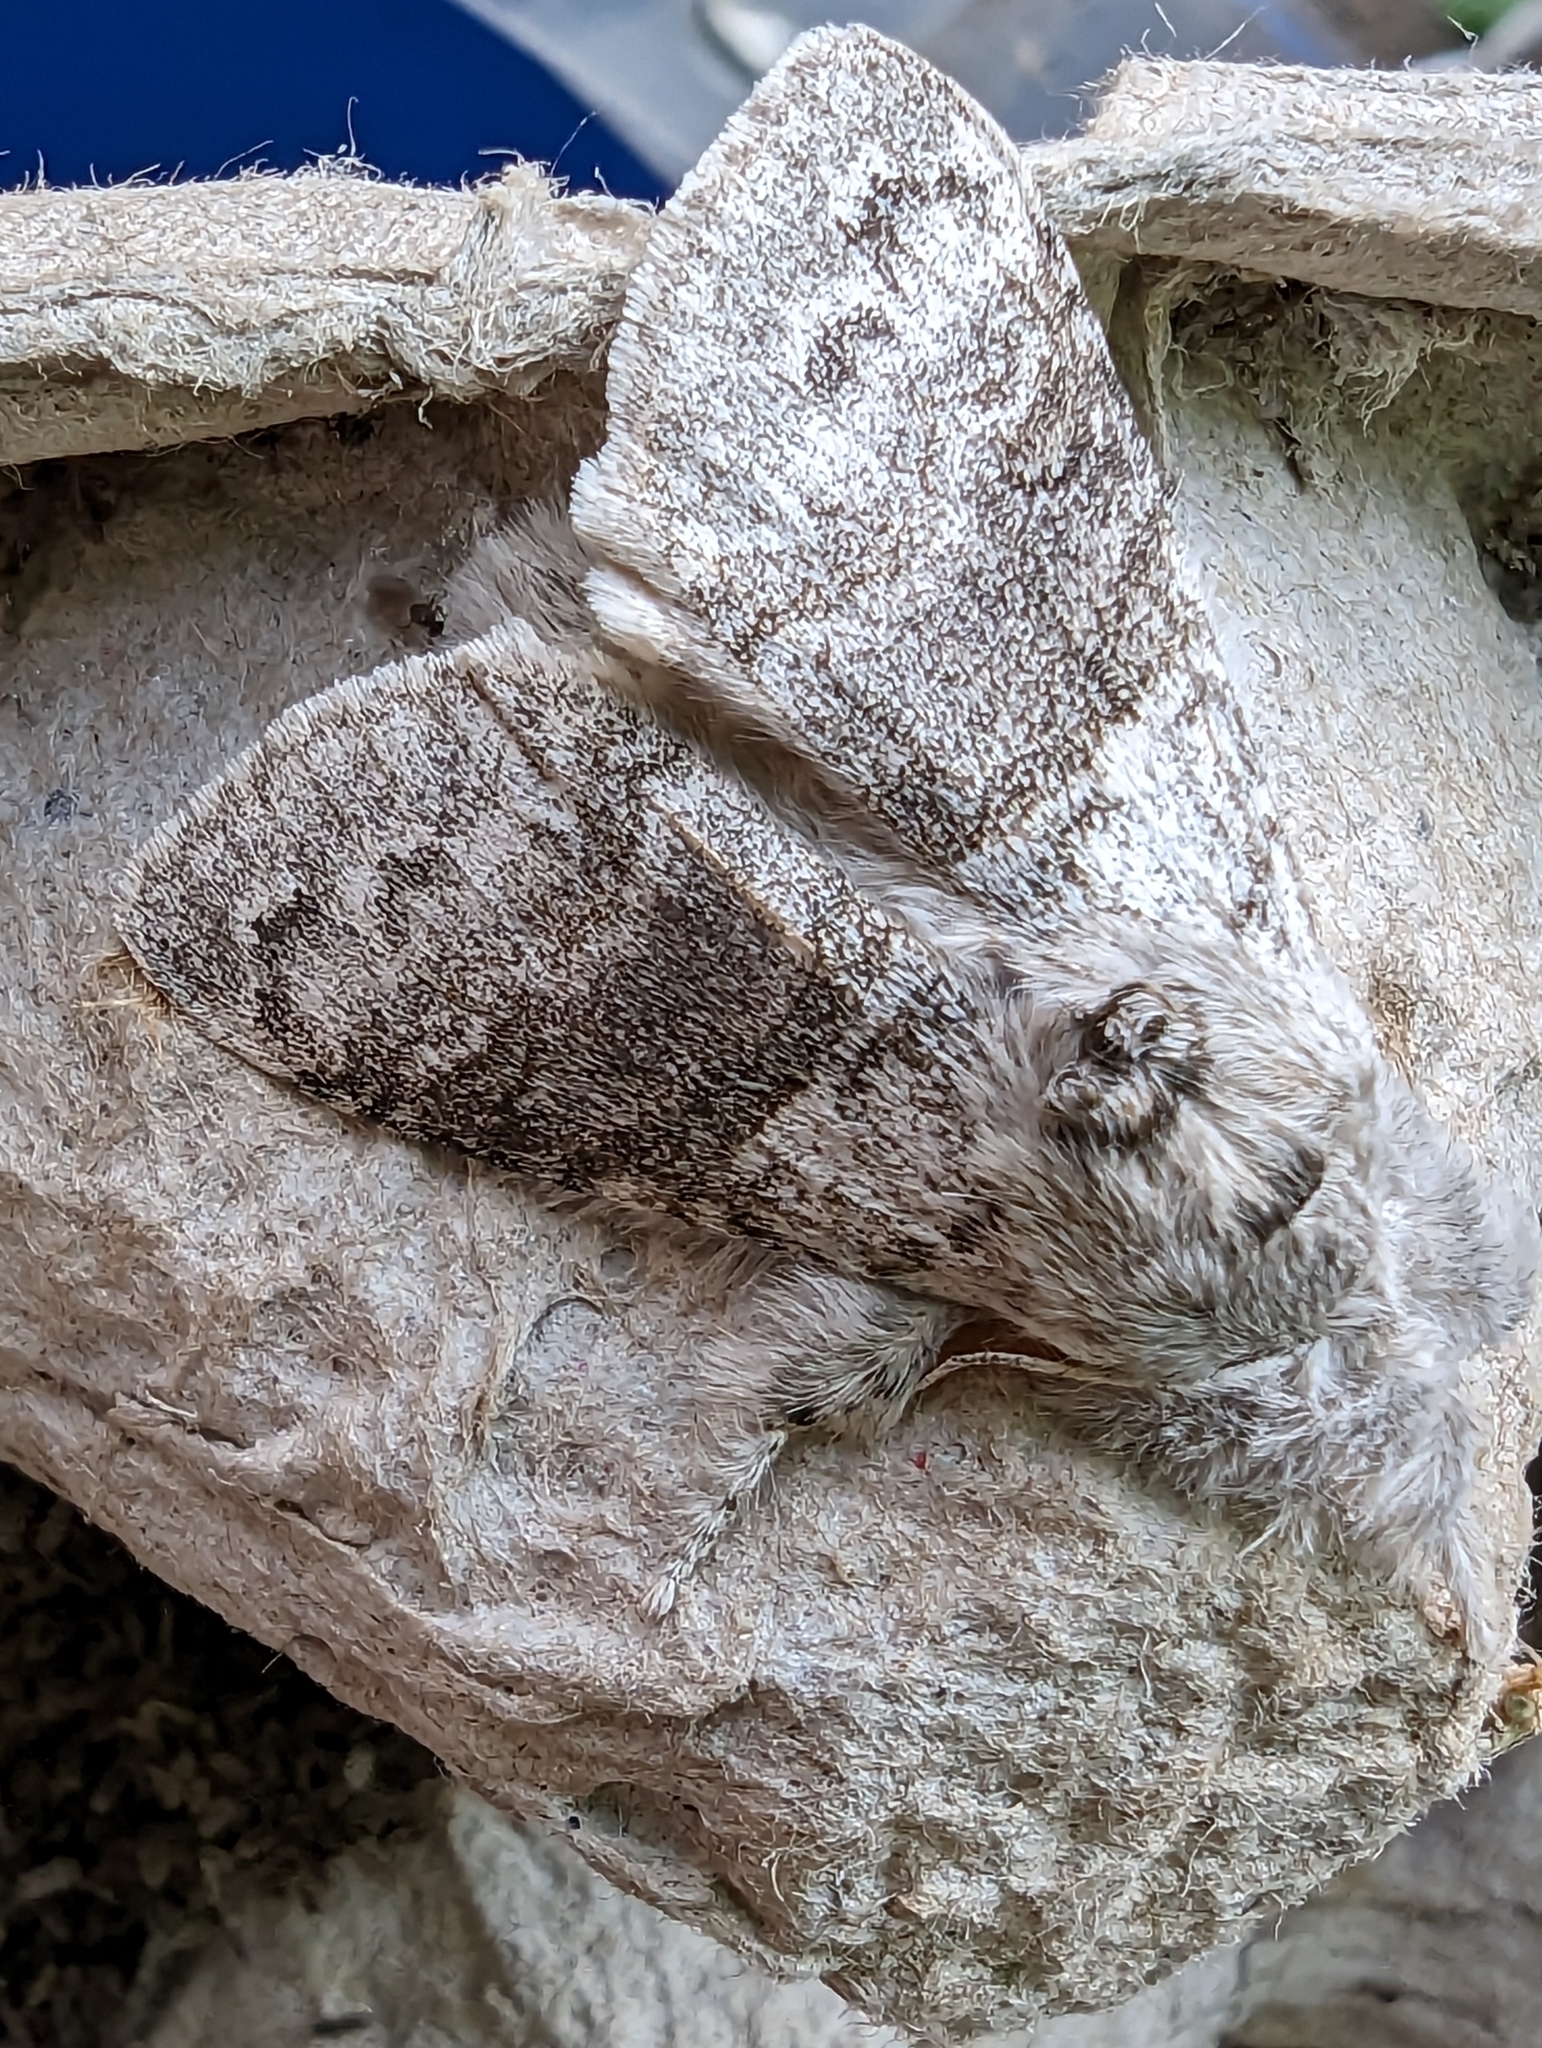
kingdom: Animalia
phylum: Arthropoda
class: Insecta
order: Lepidoptera
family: Erebidae
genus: Calliteara
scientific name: Calliteara pudibunda
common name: Pale tussock
